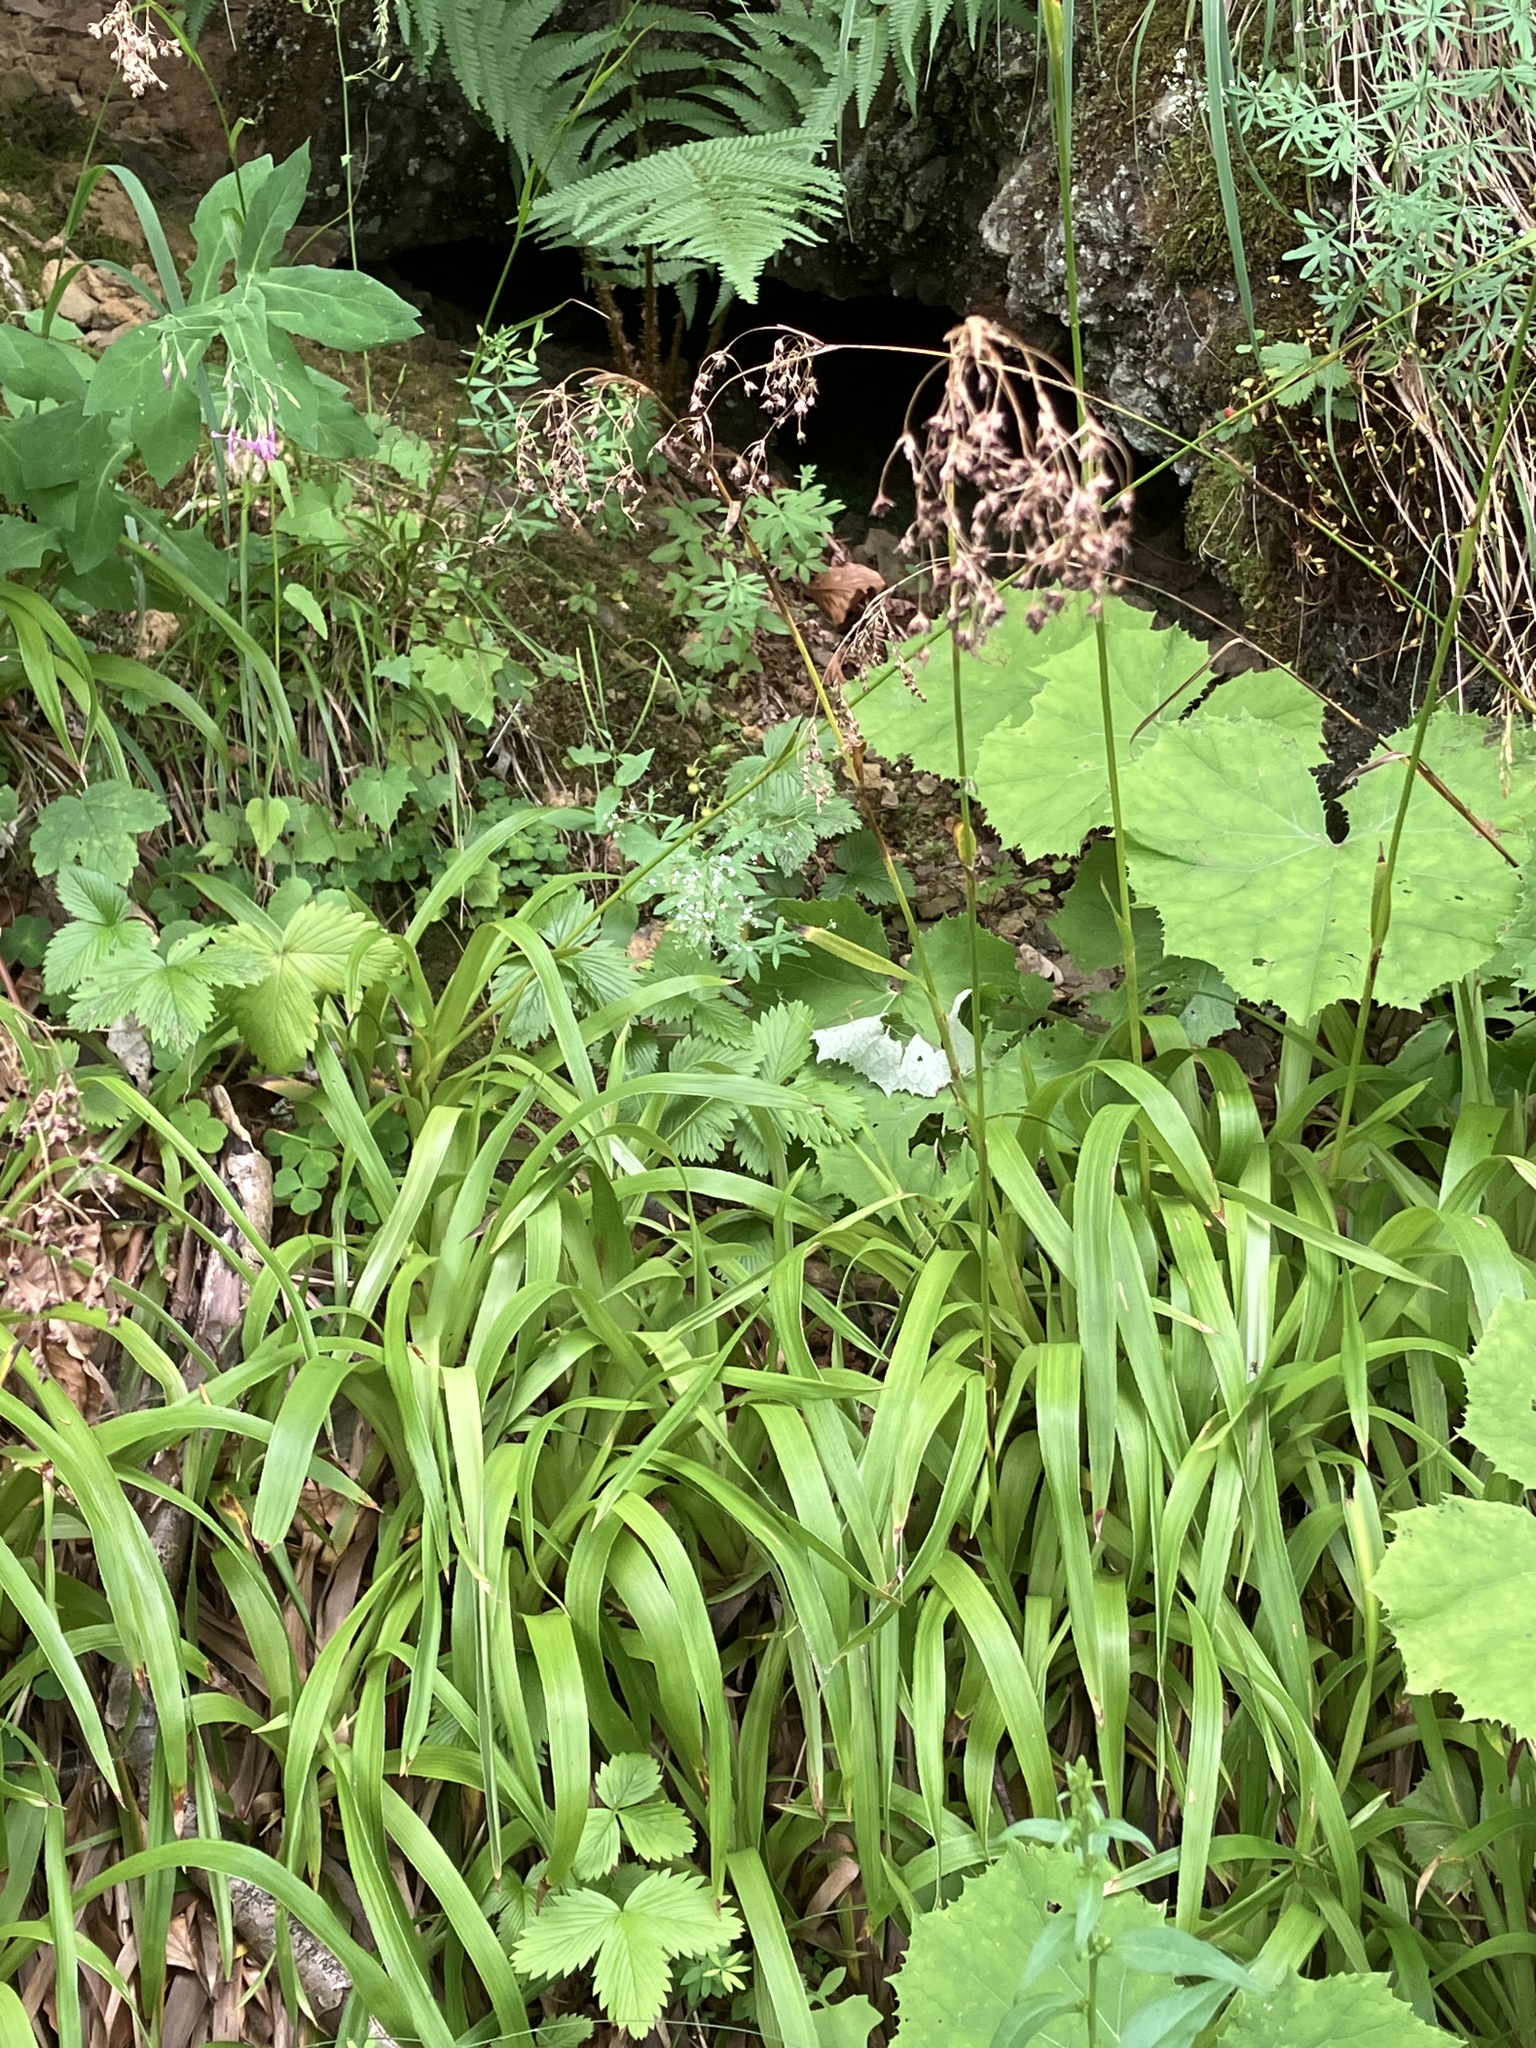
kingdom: Plantae
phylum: Tracheophyta
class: Liliopsida
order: Poales
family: Juncaceae
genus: Luzula
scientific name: Luzula sylvatica
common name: Great wood-rush
